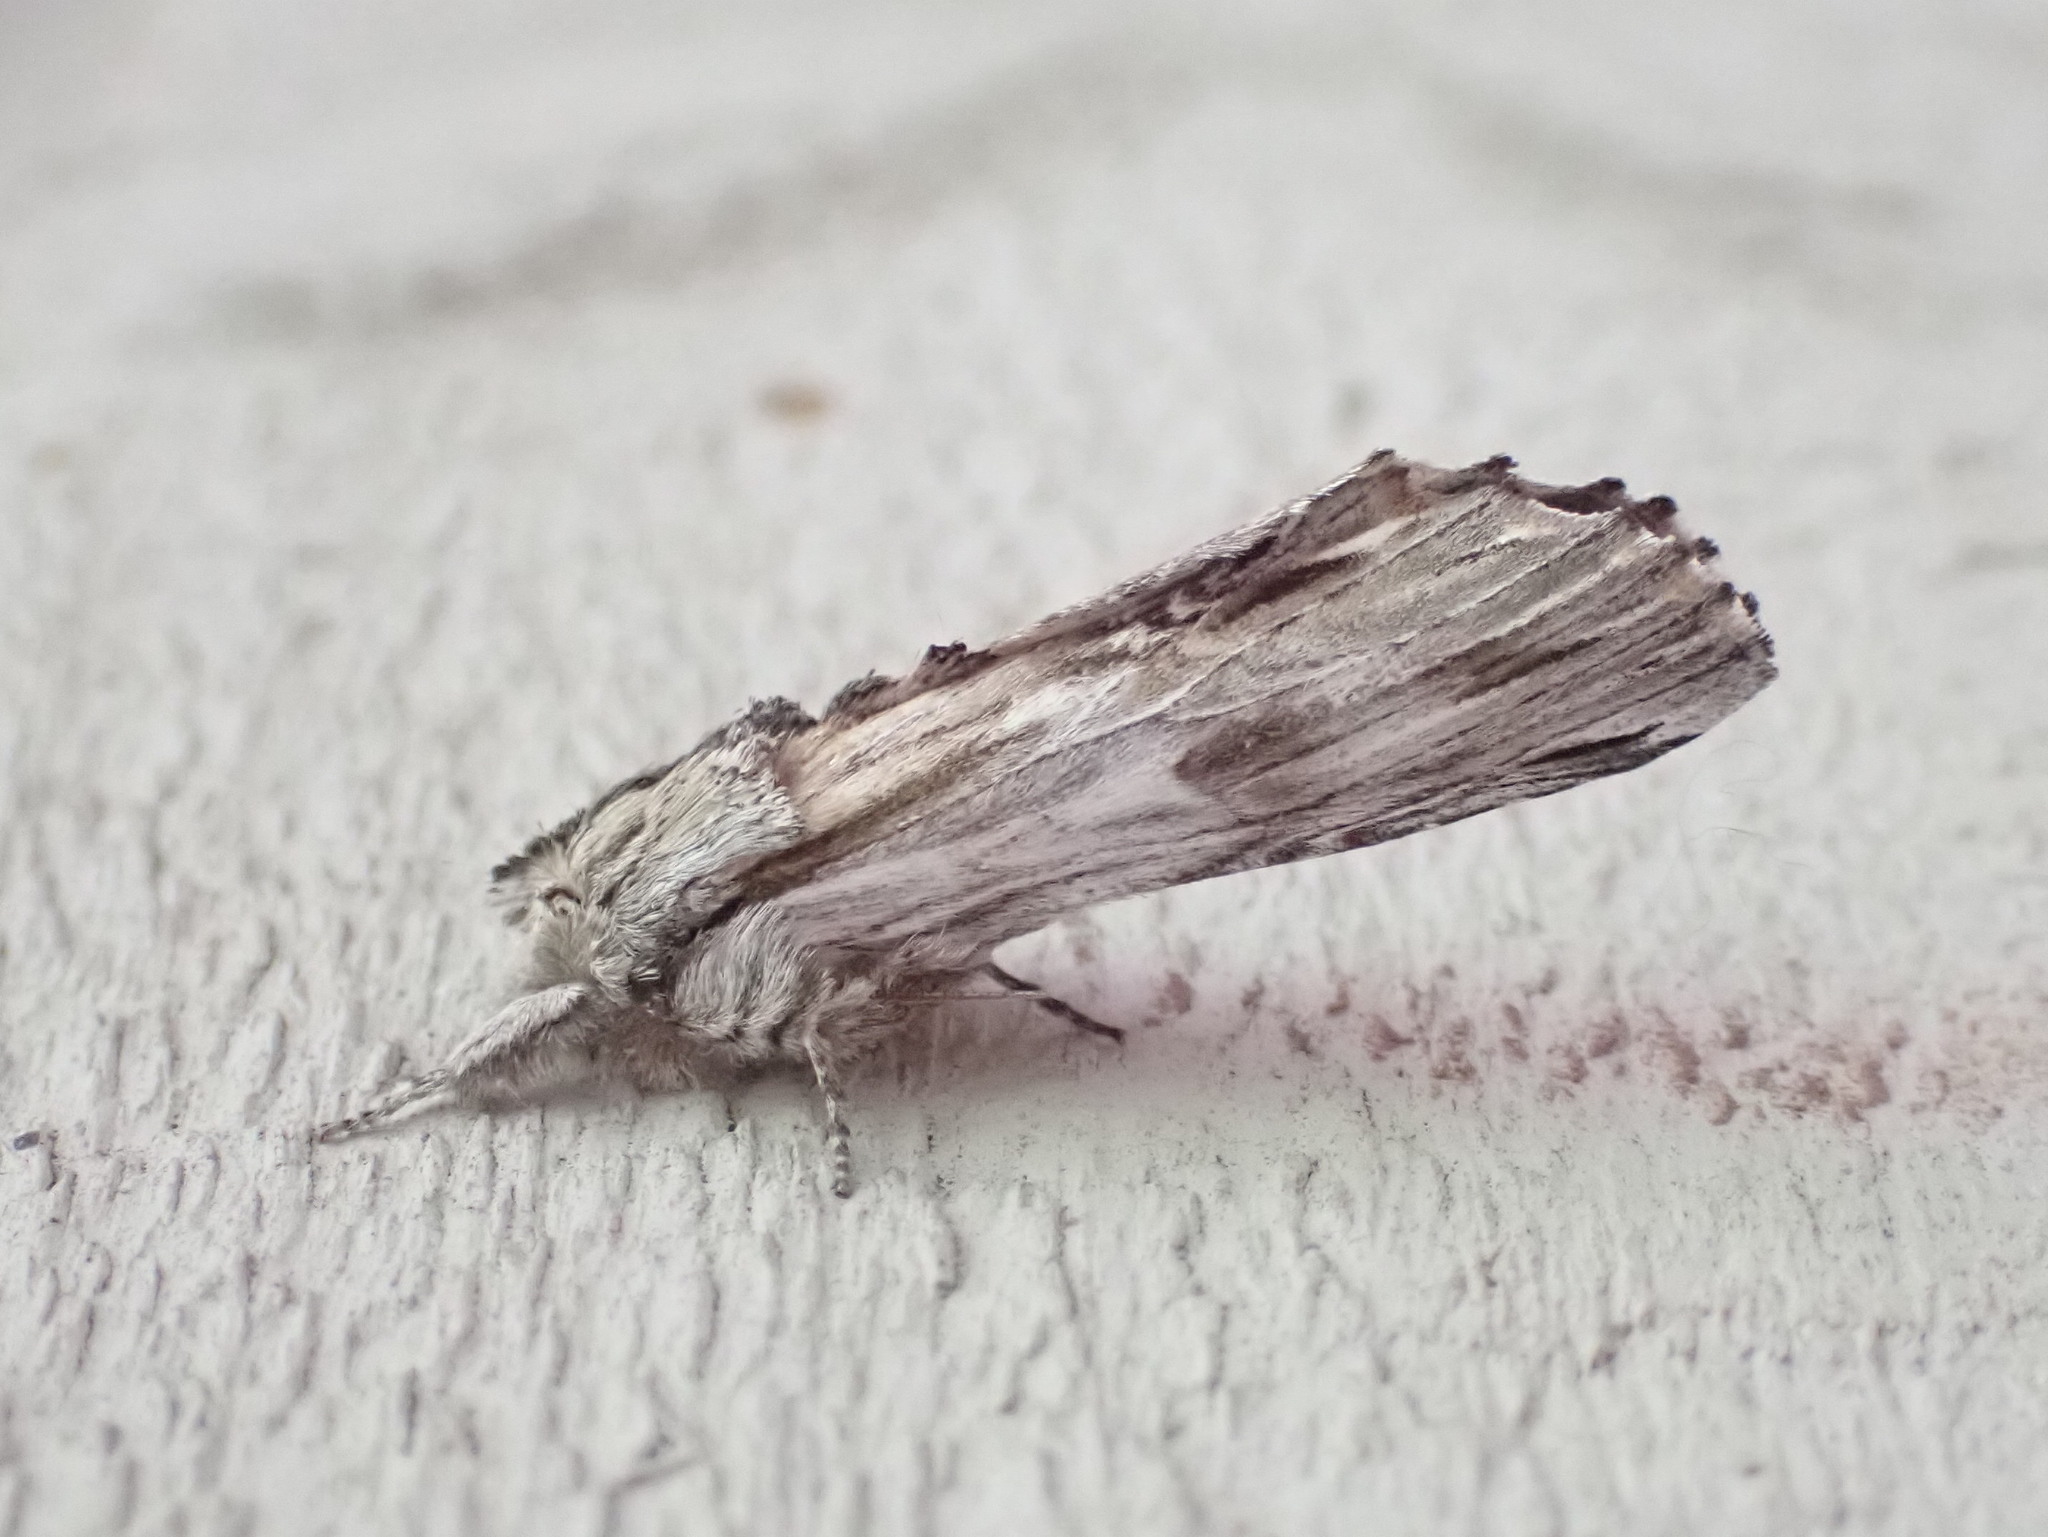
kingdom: Animalia
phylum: Arthropoda
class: Insecta
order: Lepidoptera
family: Notodontidae
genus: Oligocentria
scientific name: Oligocentria Ianassa lignicolor
